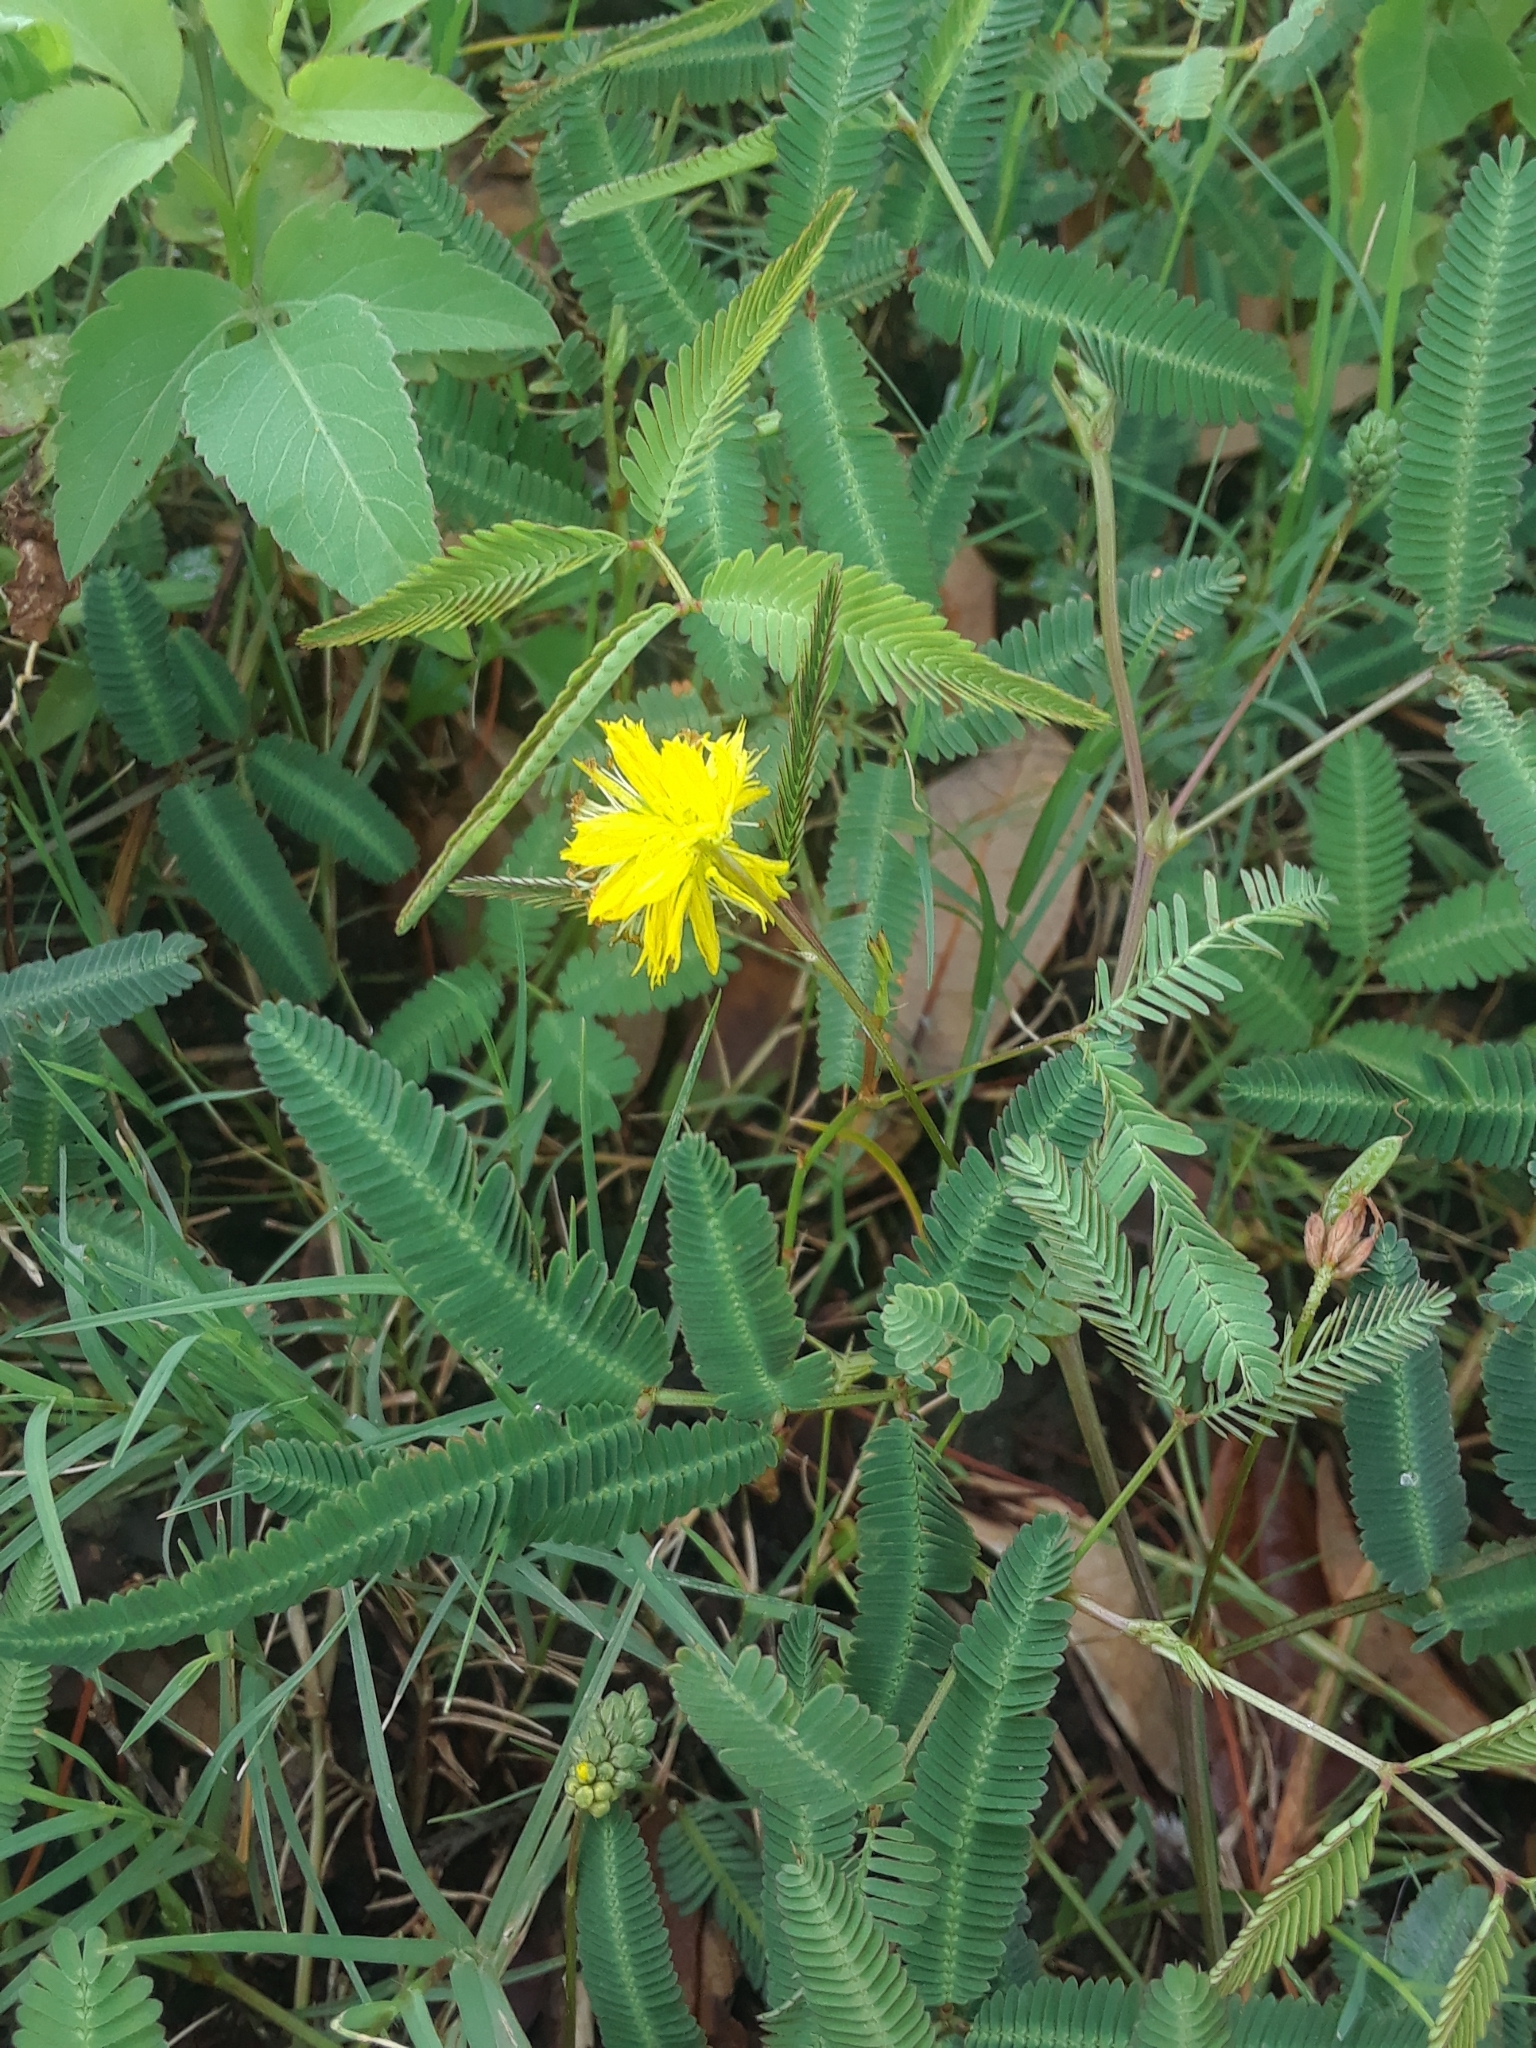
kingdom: Plantae
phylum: Tracheophyta
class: Magnoliopsida
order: Fabales
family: Fabaceae
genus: Neptunia
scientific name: Neptunia pubescens
